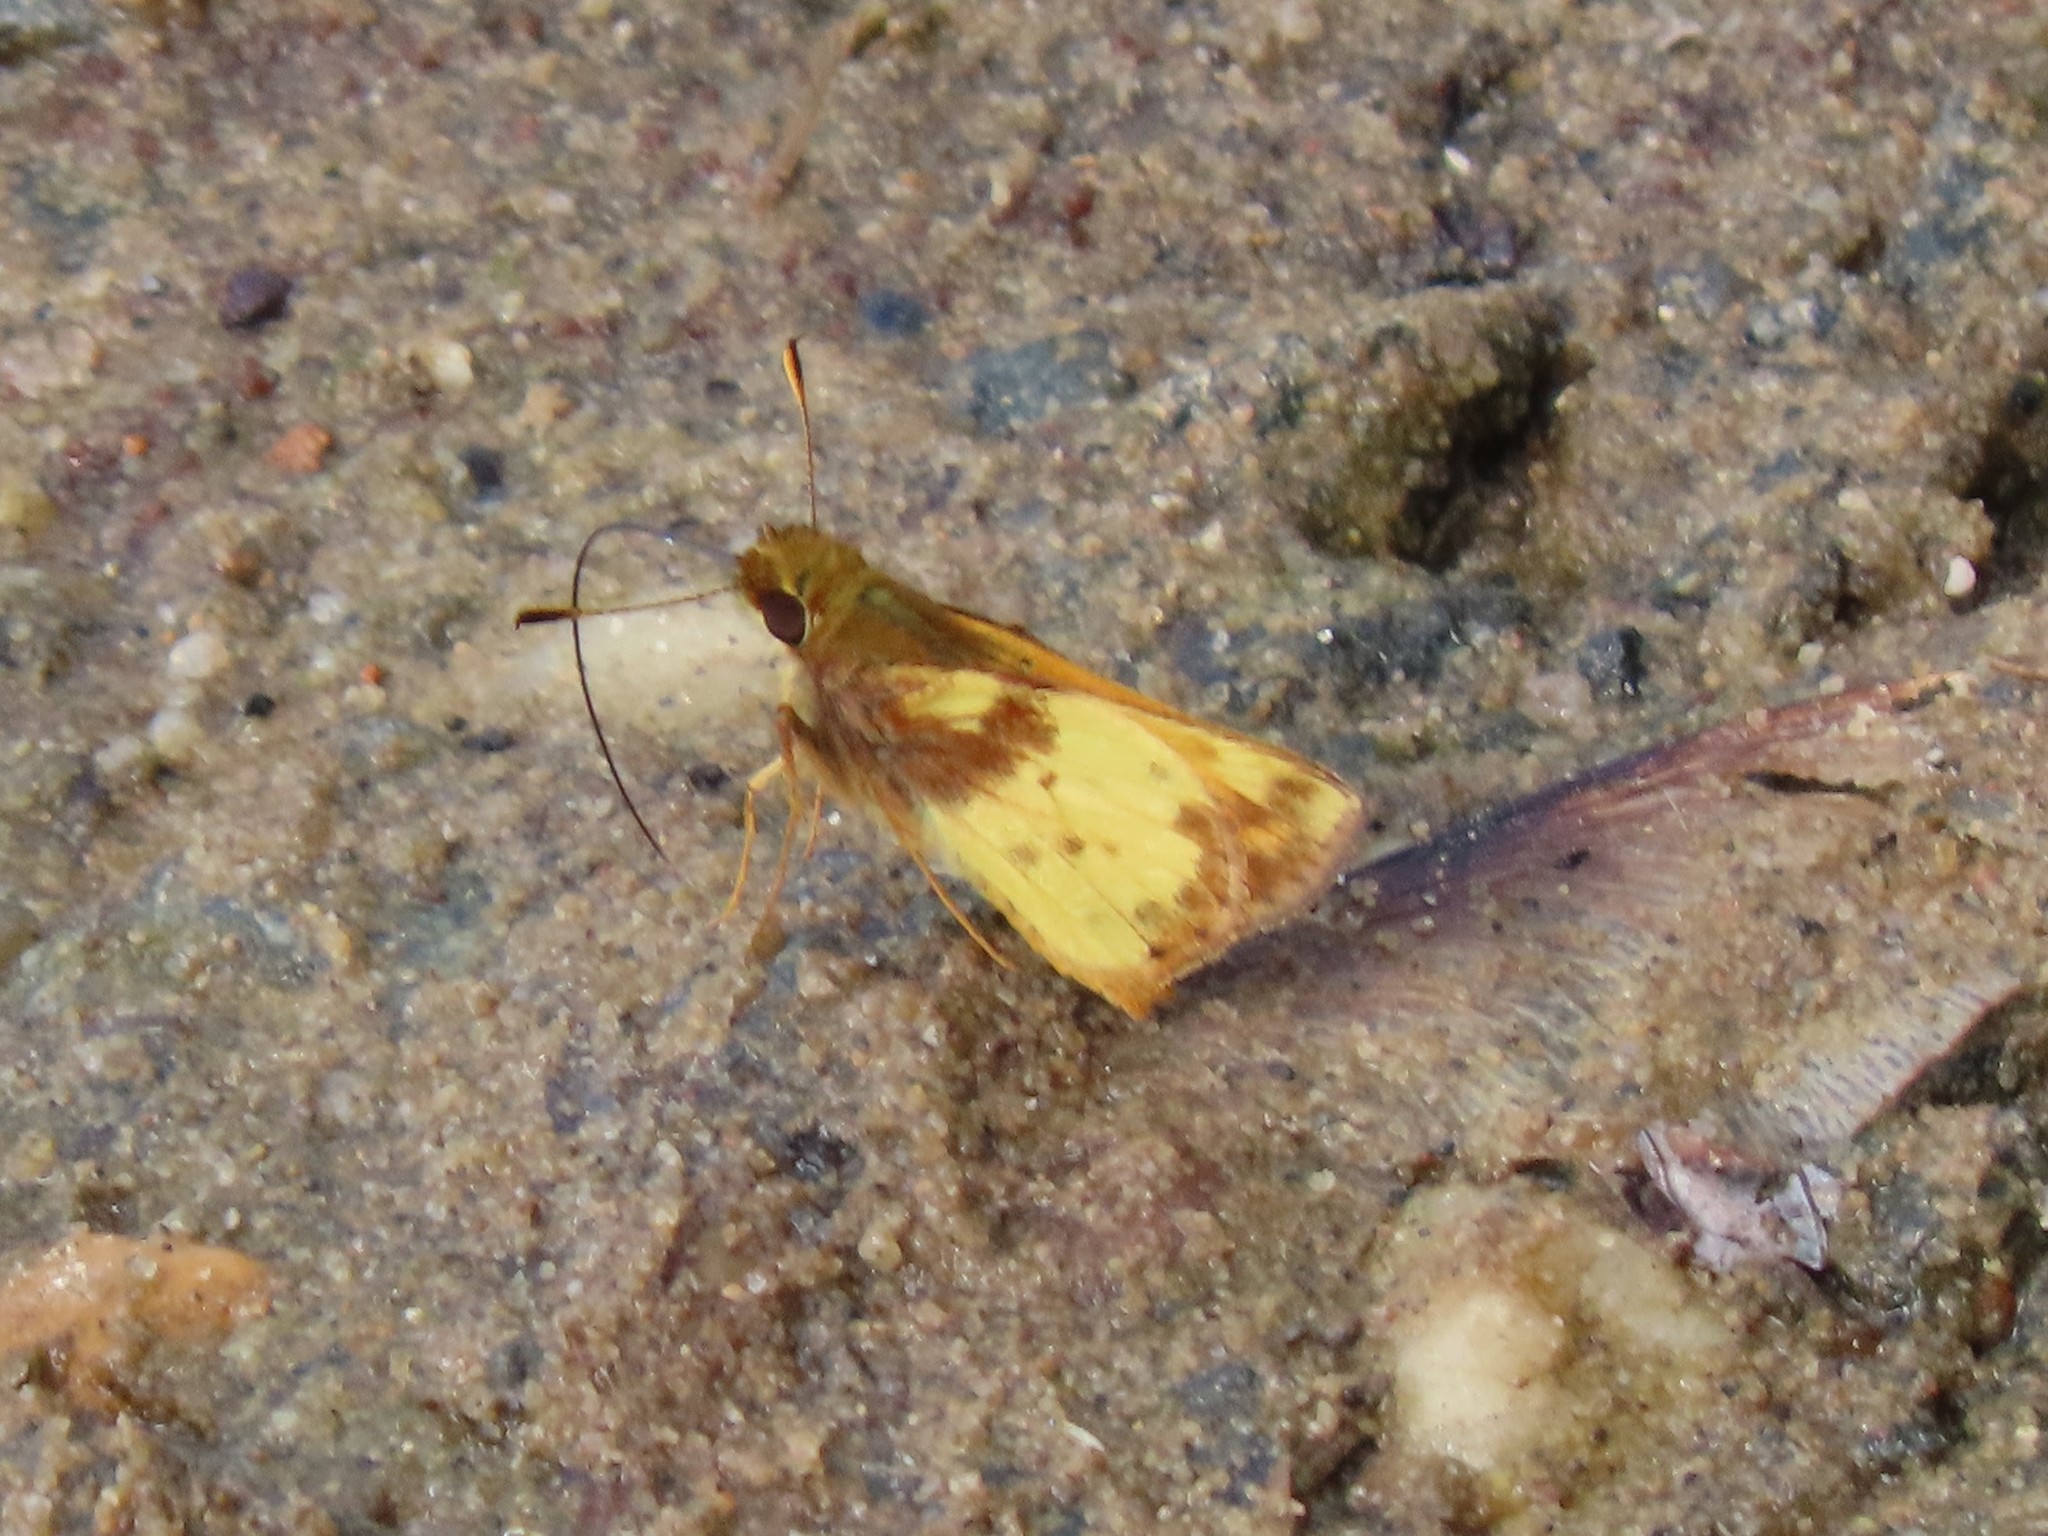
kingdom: Animalia
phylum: Arthropoda
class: Insecta
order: Lepidoptera
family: Hesperiidae
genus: Lon
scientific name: Lon zabulon
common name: Zabulon skipper
